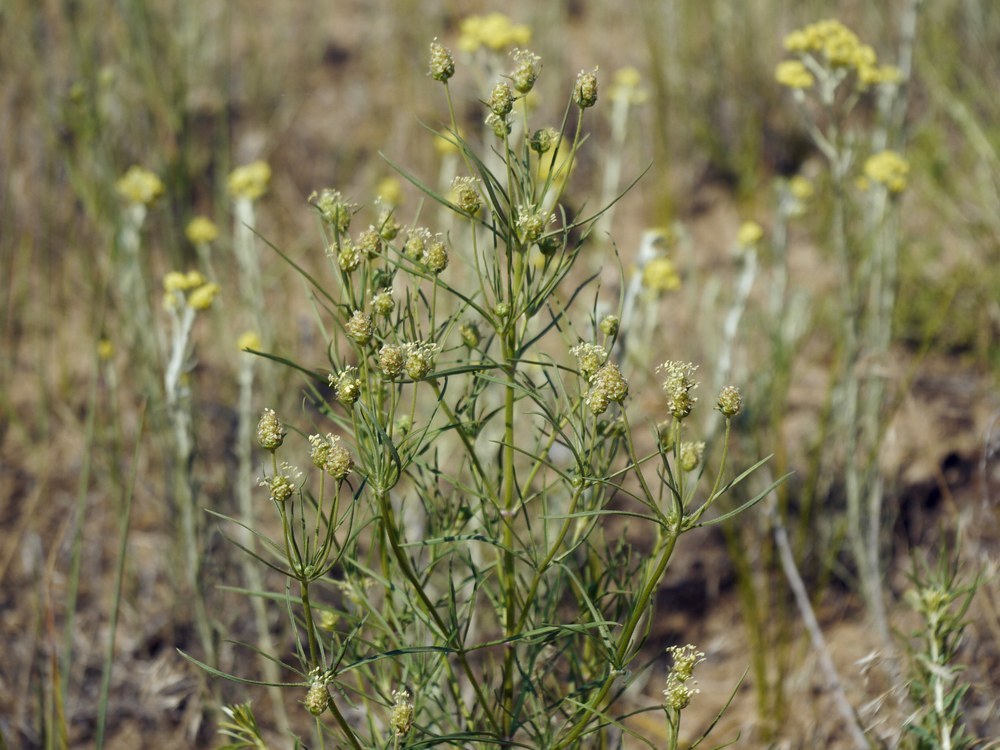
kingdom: Plantae
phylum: Tracheophyta
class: Magnoliopsida
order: Lamiales
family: Plantaginaceae
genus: Plantago
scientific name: Plantago arenaria
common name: Branched plantain
